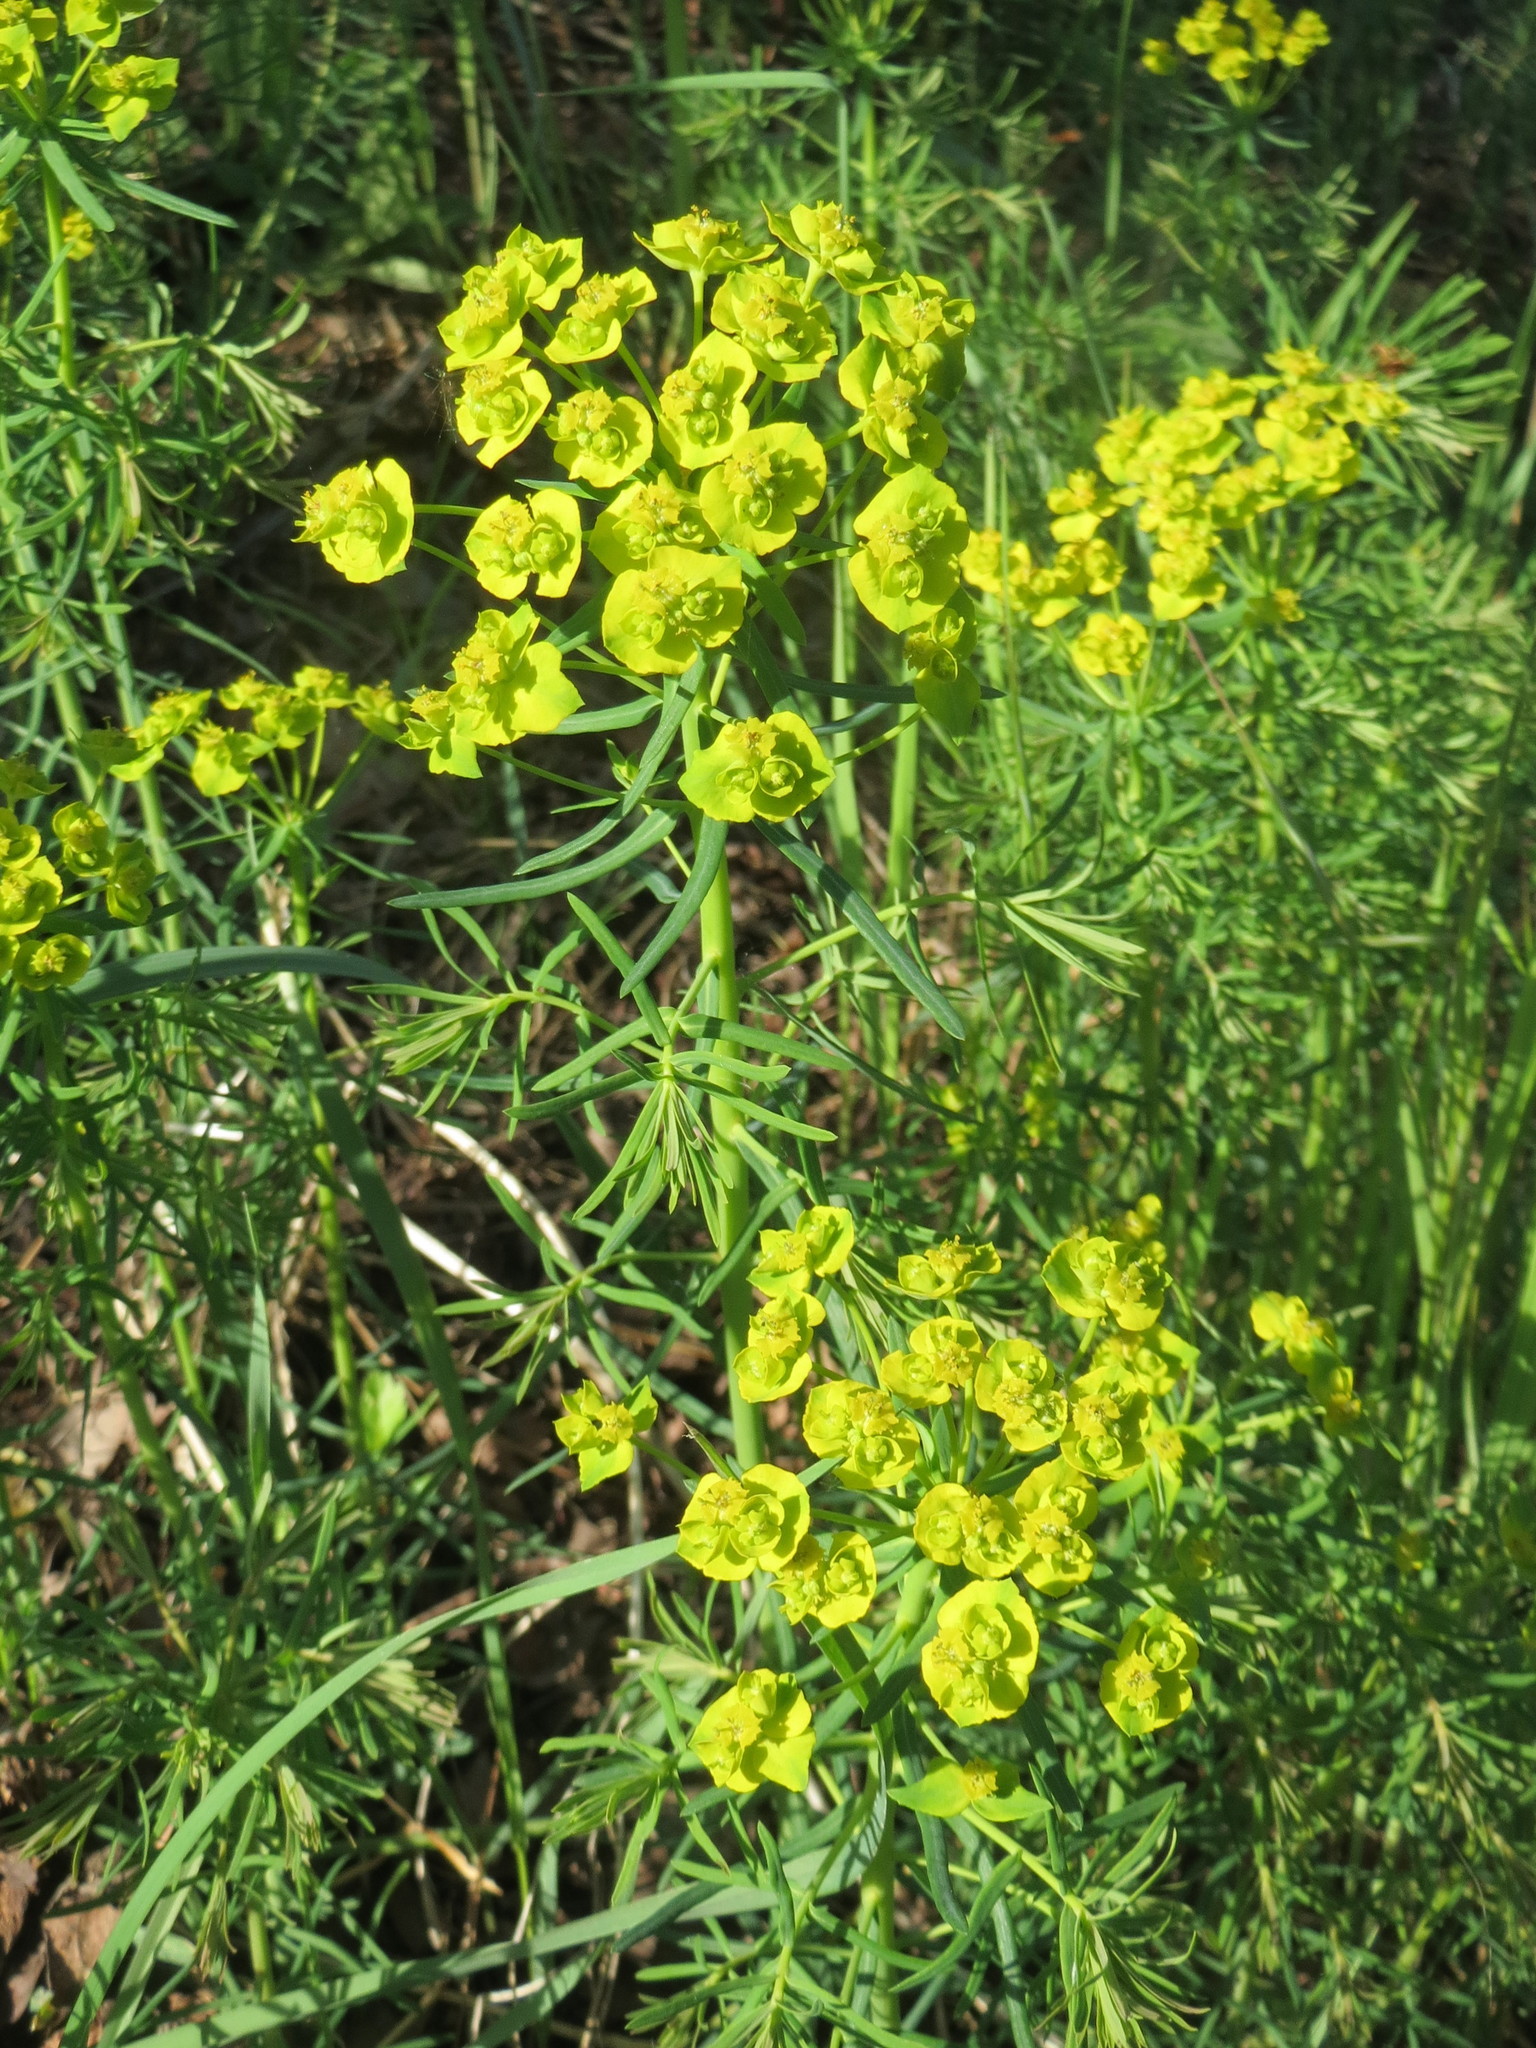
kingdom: Plantae
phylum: Tracheophyta
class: Magnoliopsida
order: Malpighiales
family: Euphorbiaceae
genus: Euphorbia
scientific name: Euphorbia cyparissias
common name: Cypress spurge
